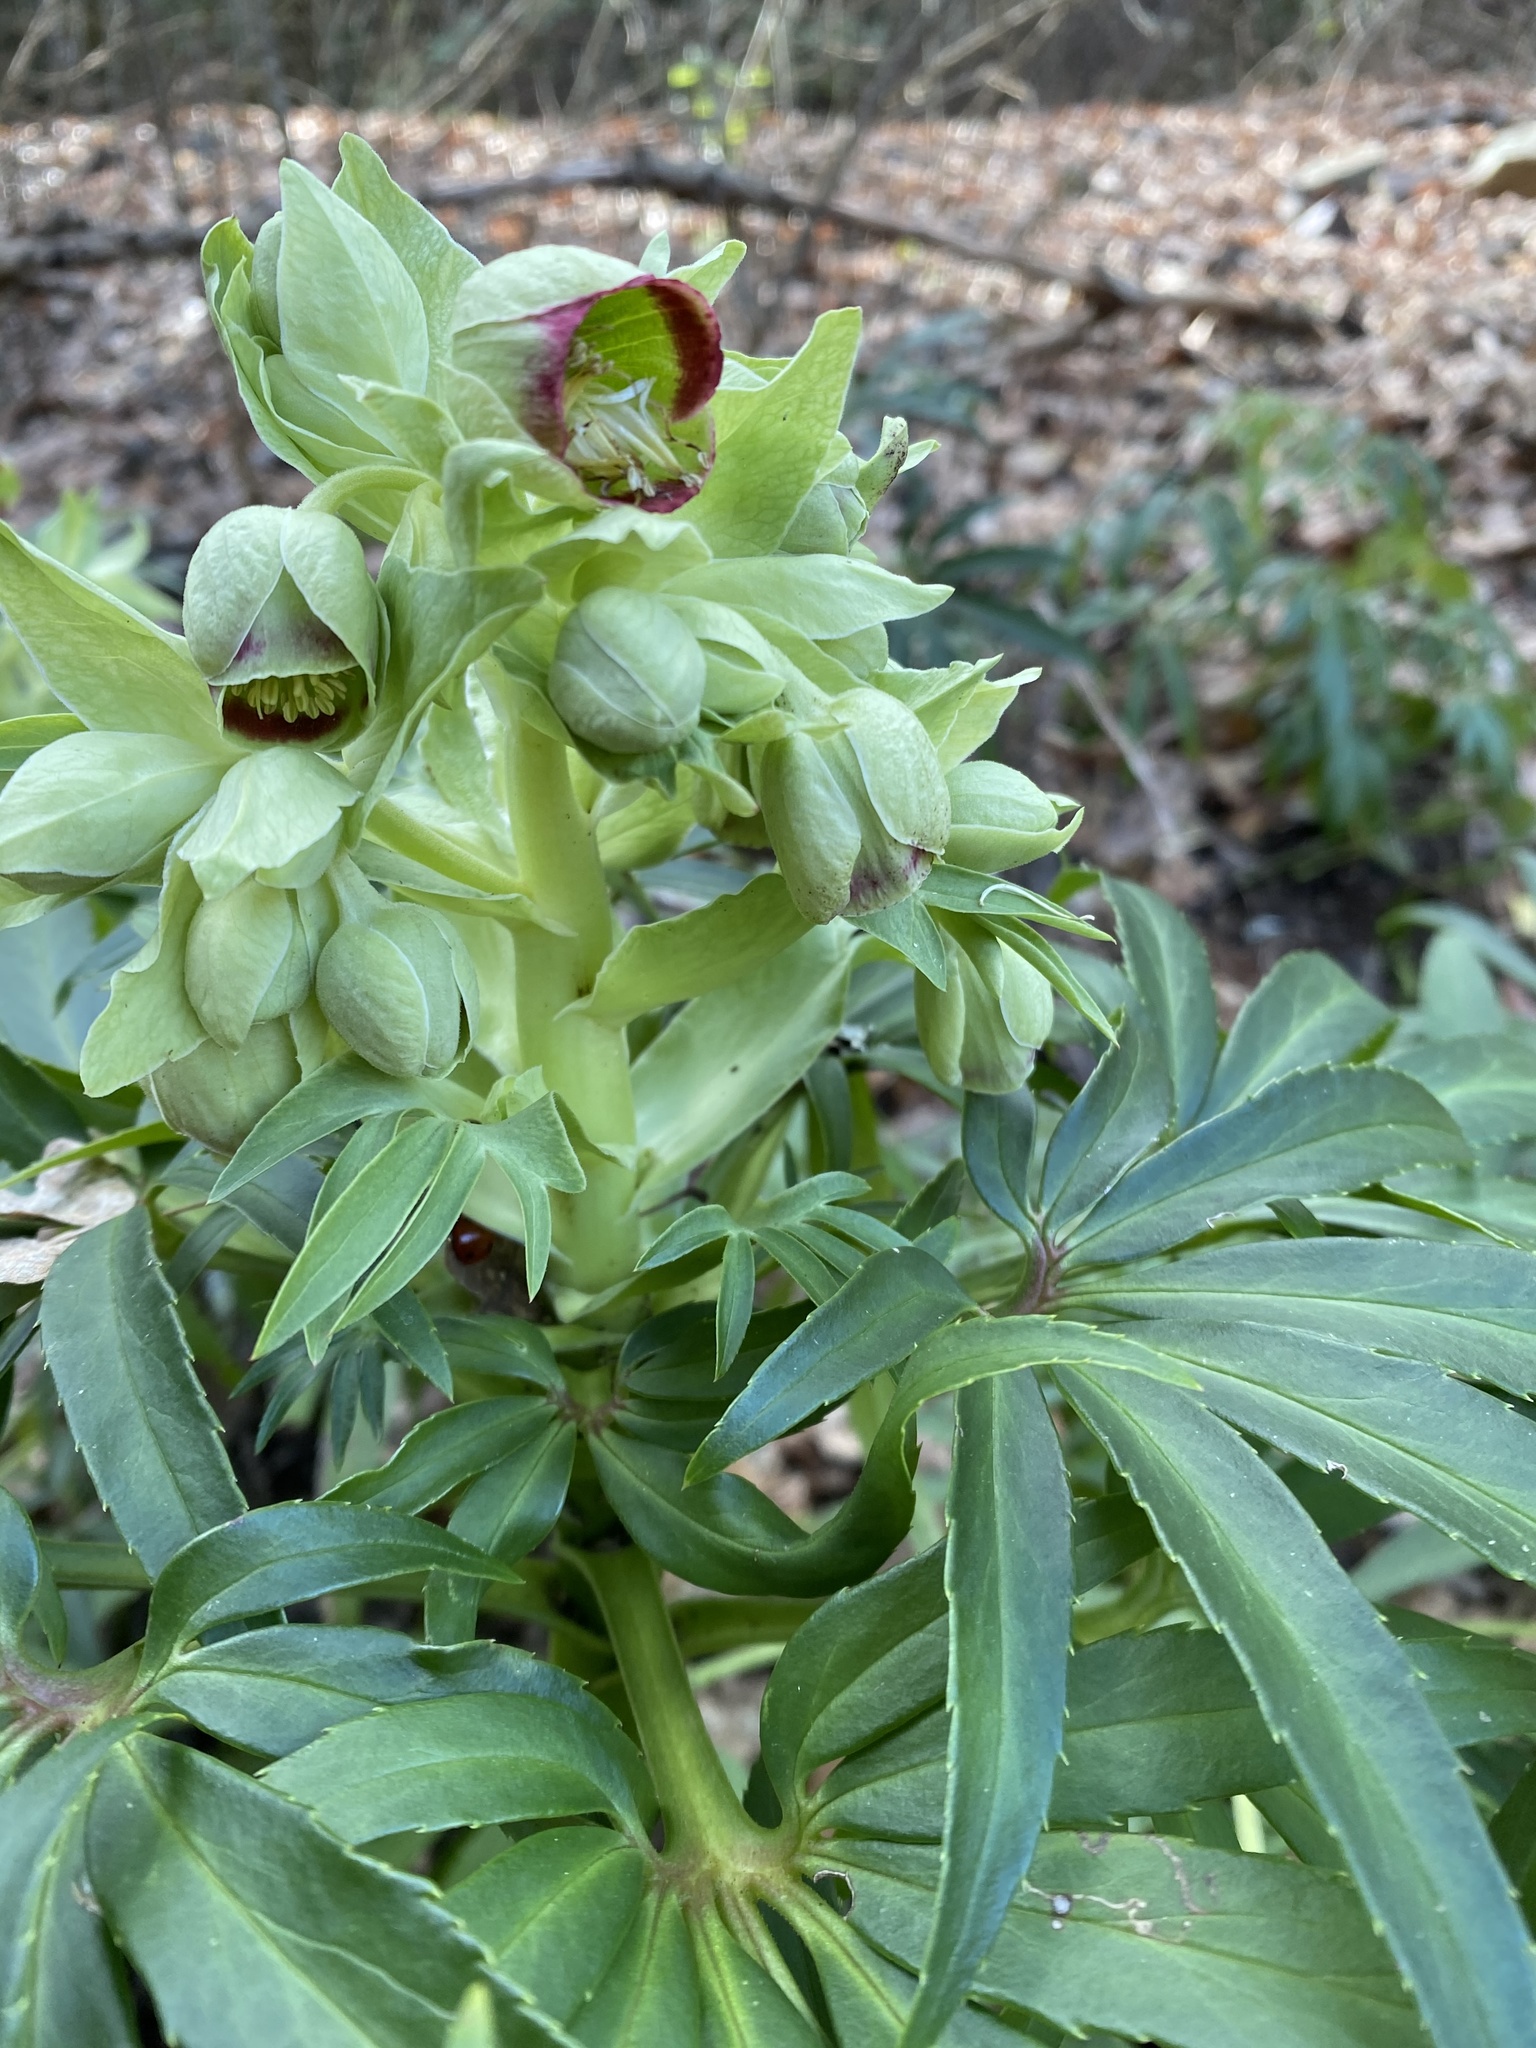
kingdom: Plantae
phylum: Tracheophyta
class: Magnoliopsida
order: Ranunculales
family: Ranunculaceae
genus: Helleborus
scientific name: Helleborus foetidus
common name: Stinking hellebore
